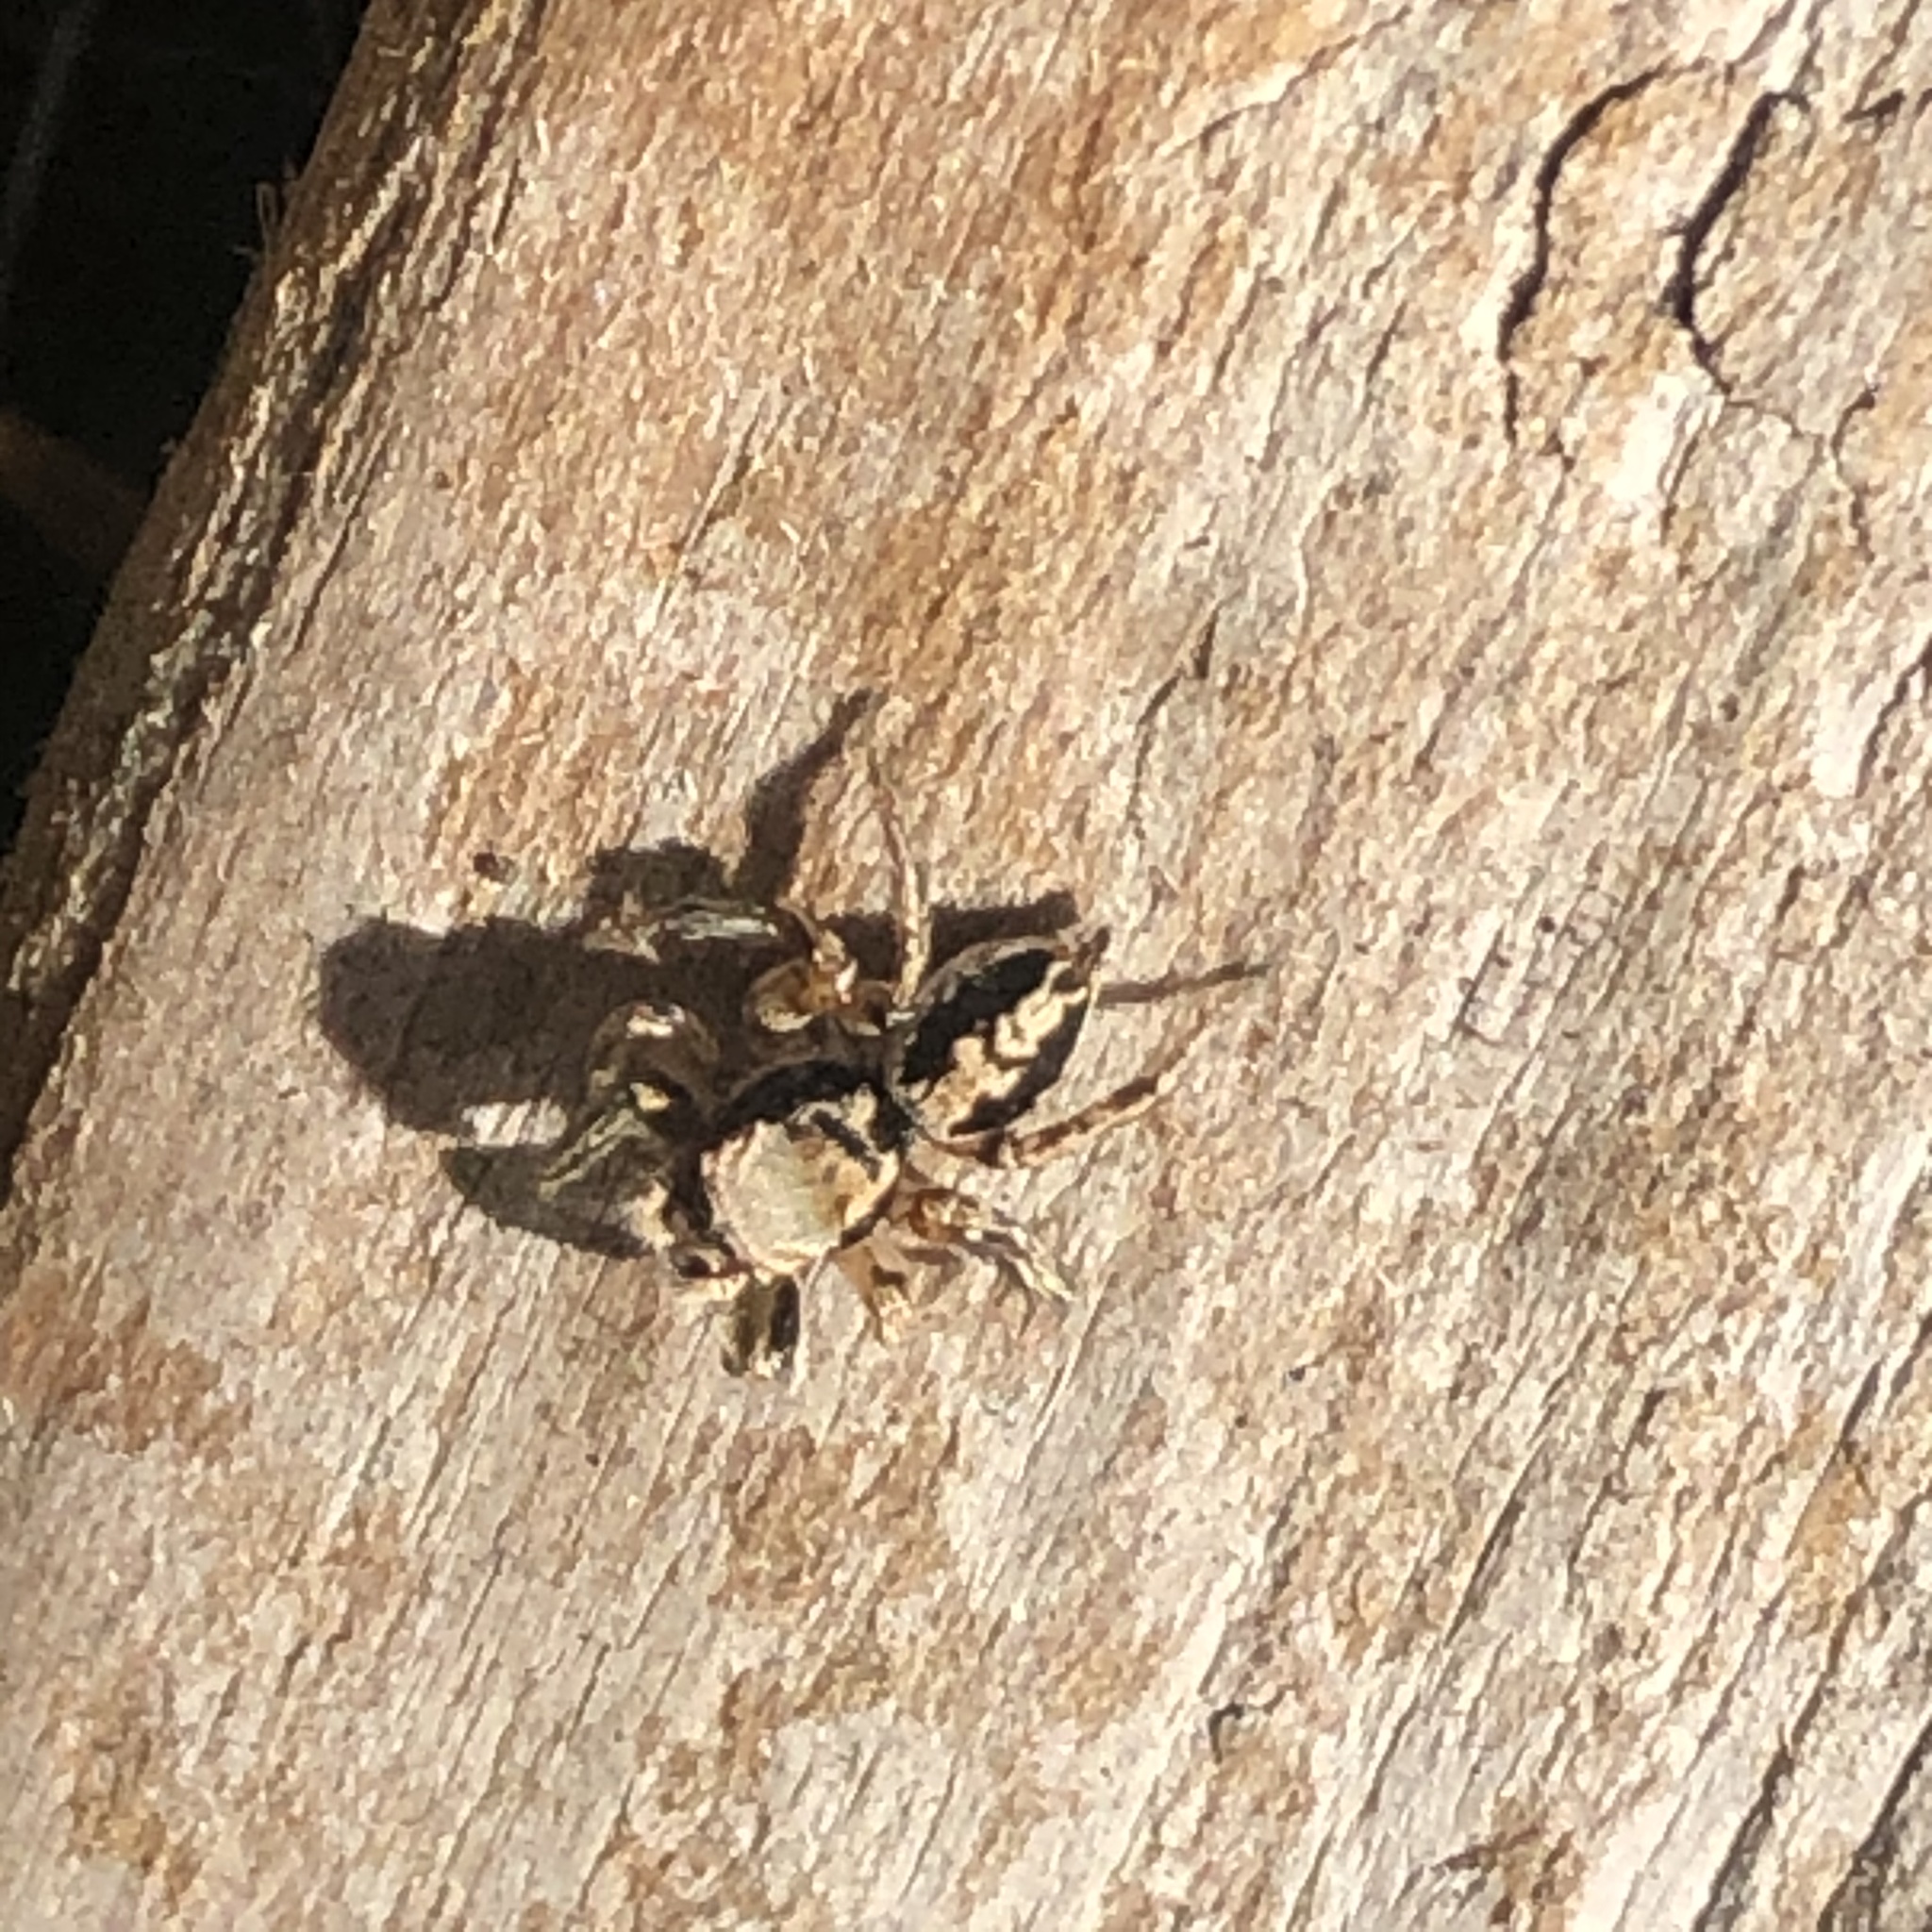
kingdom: Animalia
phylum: Arthropoda
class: Arachnida
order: Araneae
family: Salticidae
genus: Habronattus
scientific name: Habronattus pyrrithrix
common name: Jumping spider
